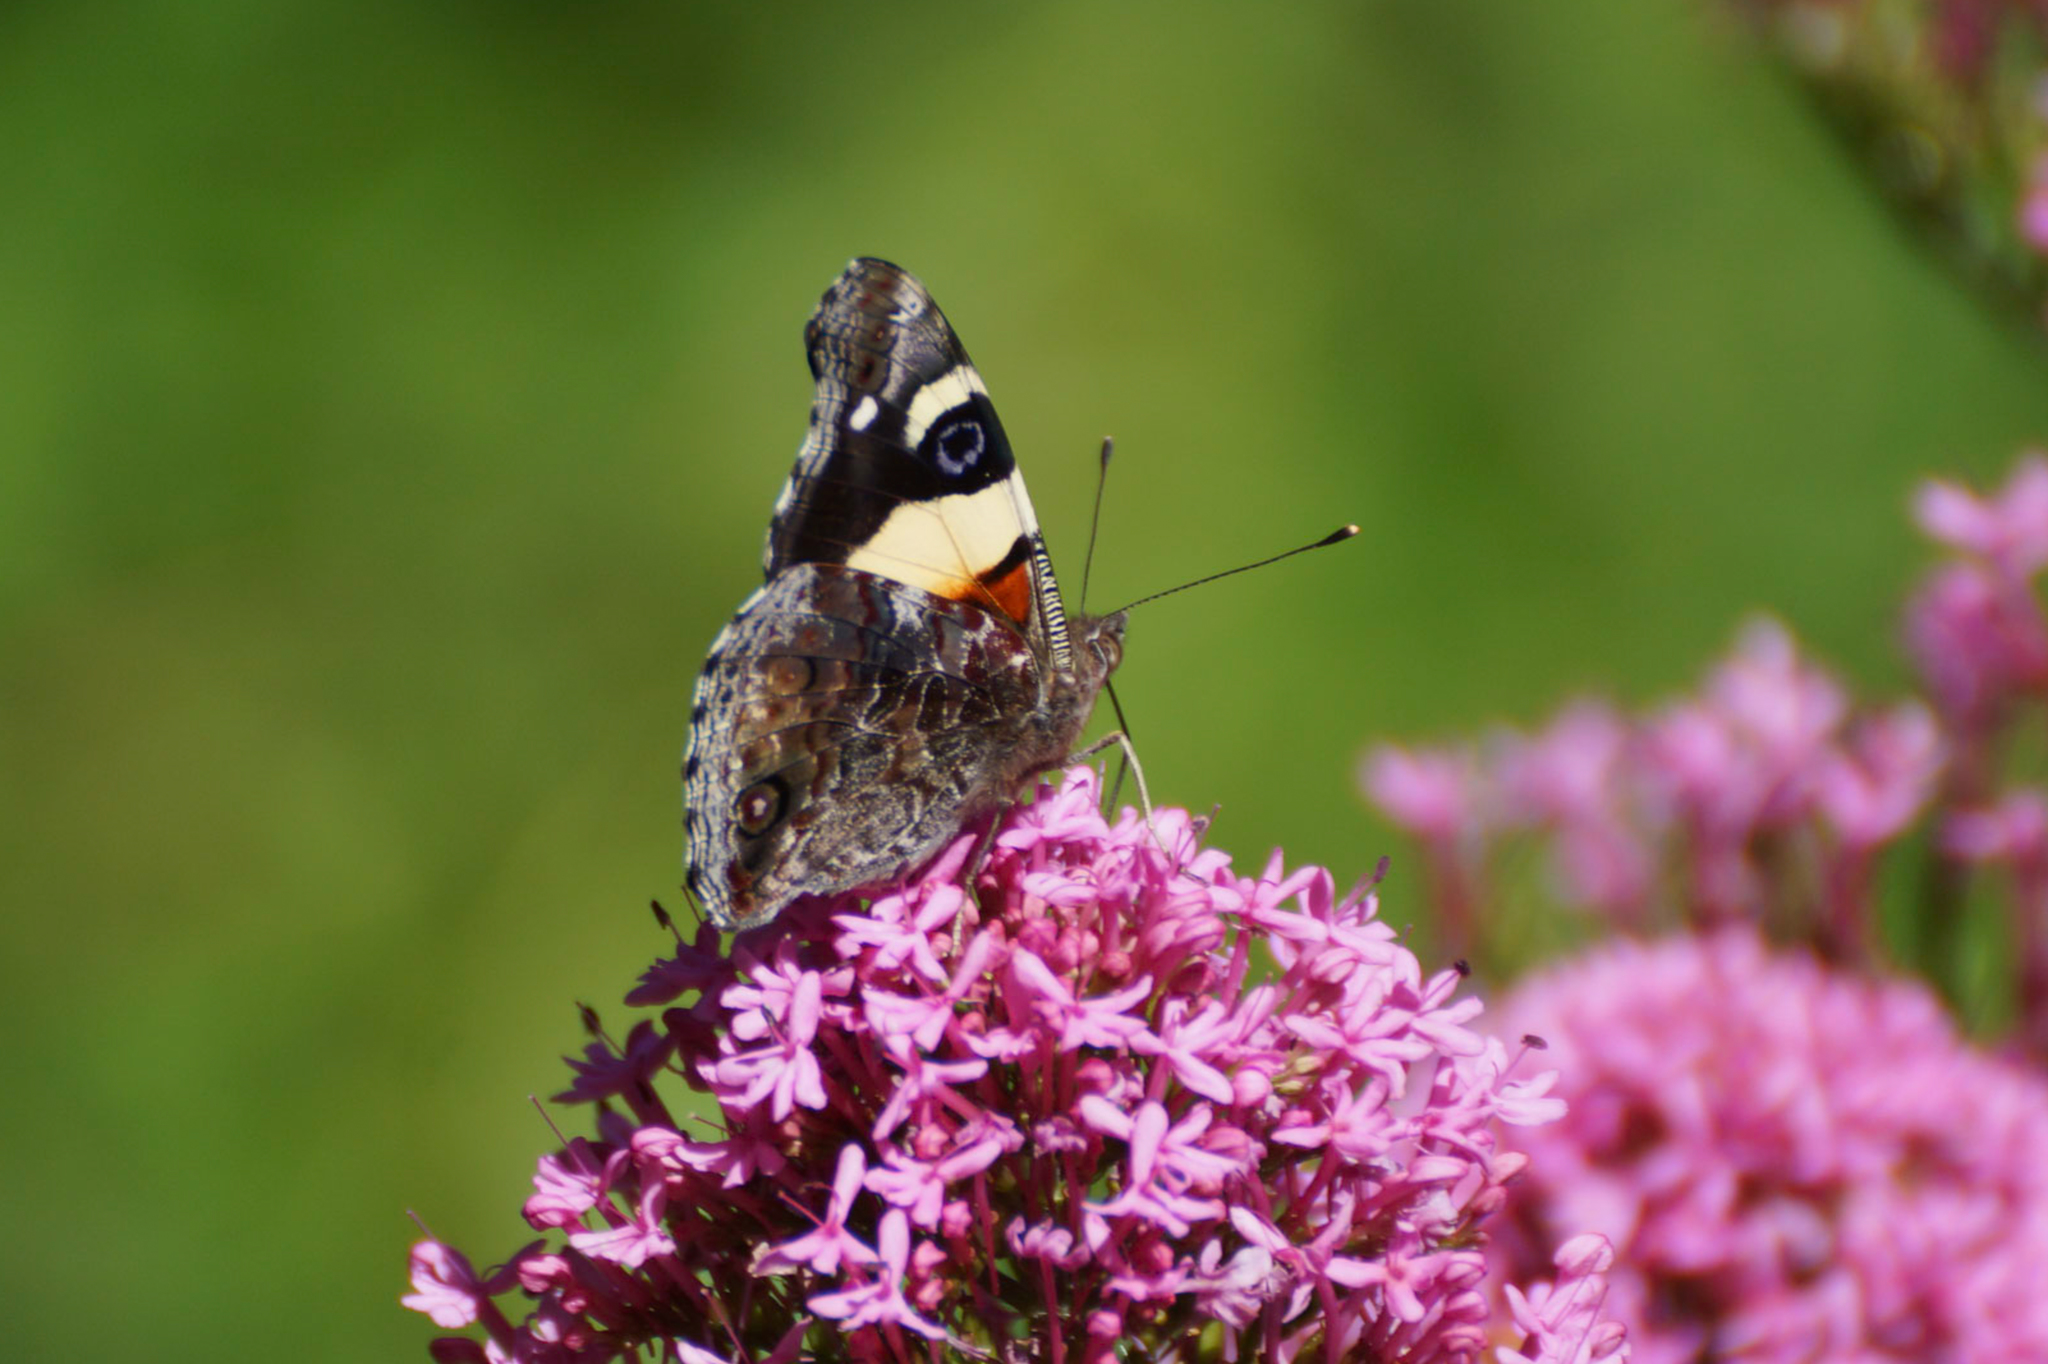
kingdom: Animalia
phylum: Arthropoda
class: Insecta
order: Lepidoptera
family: Nymphalidae
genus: Vanessa
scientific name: Vanessa itea
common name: Yellow admiral
